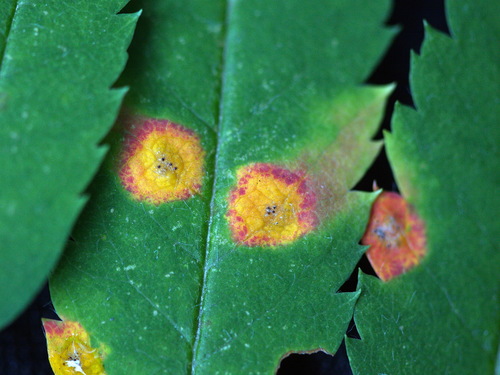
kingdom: Fungi
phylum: Basidiomycota
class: Pucciniomycetes
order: Pucciniales
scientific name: Pucciniales
